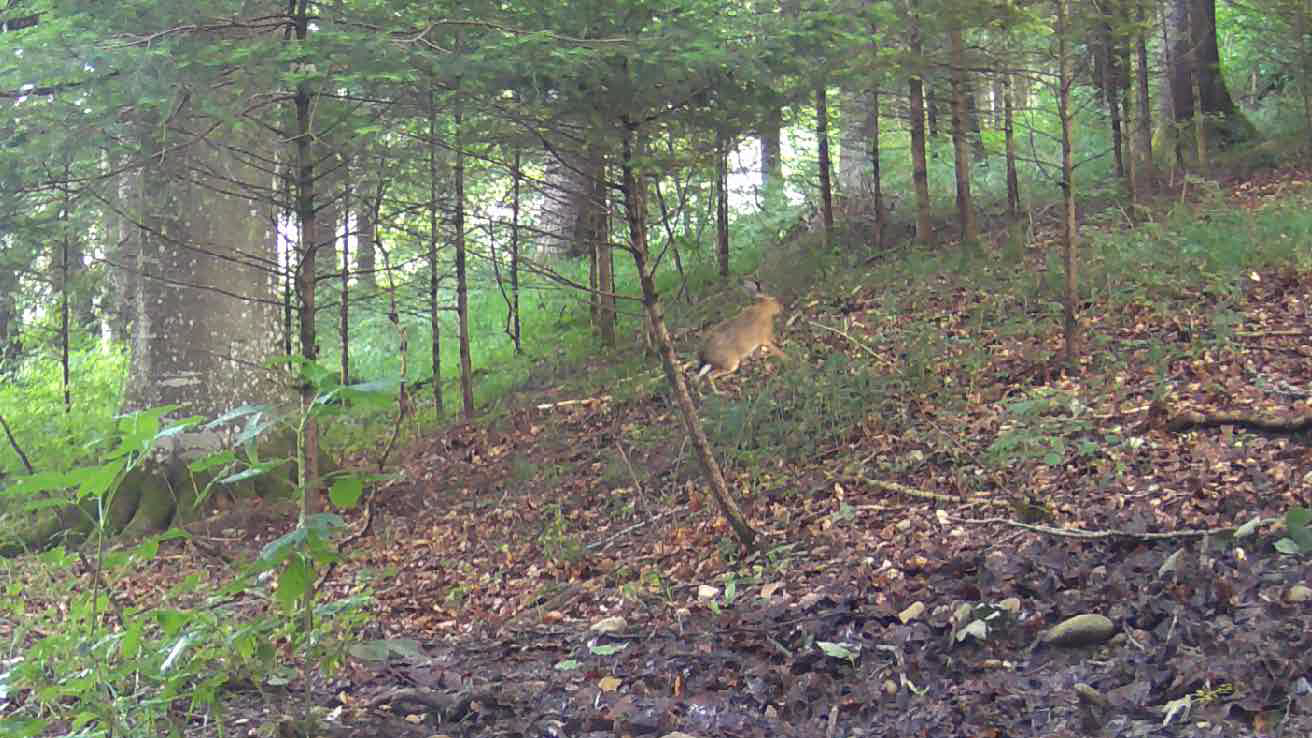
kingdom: Animalia
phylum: Chordata
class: Mammalia
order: Lagomorpha
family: Leporidae
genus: Lepus
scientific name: Lepus europaeus
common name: European hare
